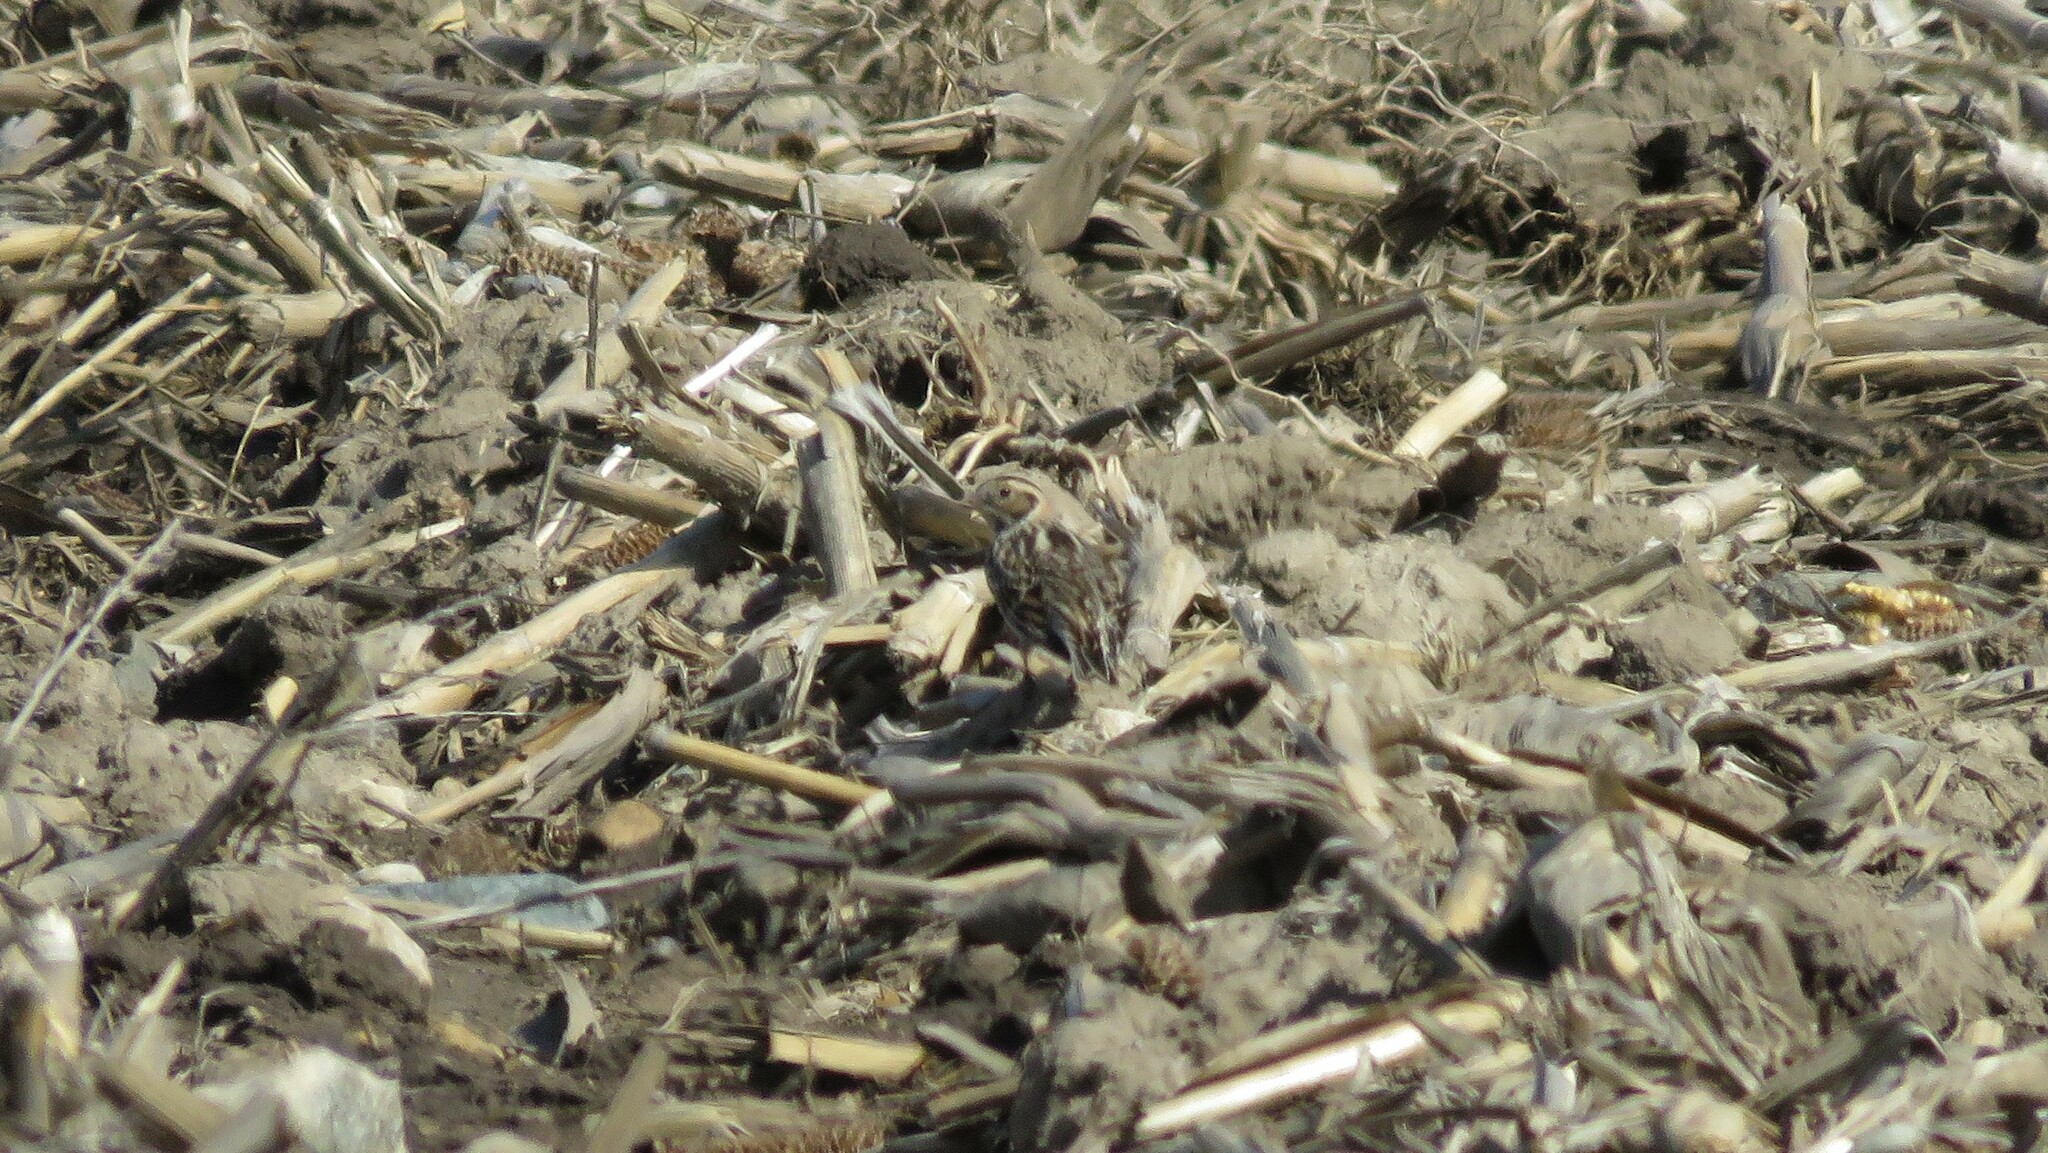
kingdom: Animalia
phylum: Chordata
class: Aves
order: Passeriformes
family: Calcariidae
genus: Calcarius
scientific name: Calcarius lapponicus
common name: Lapland longspur
